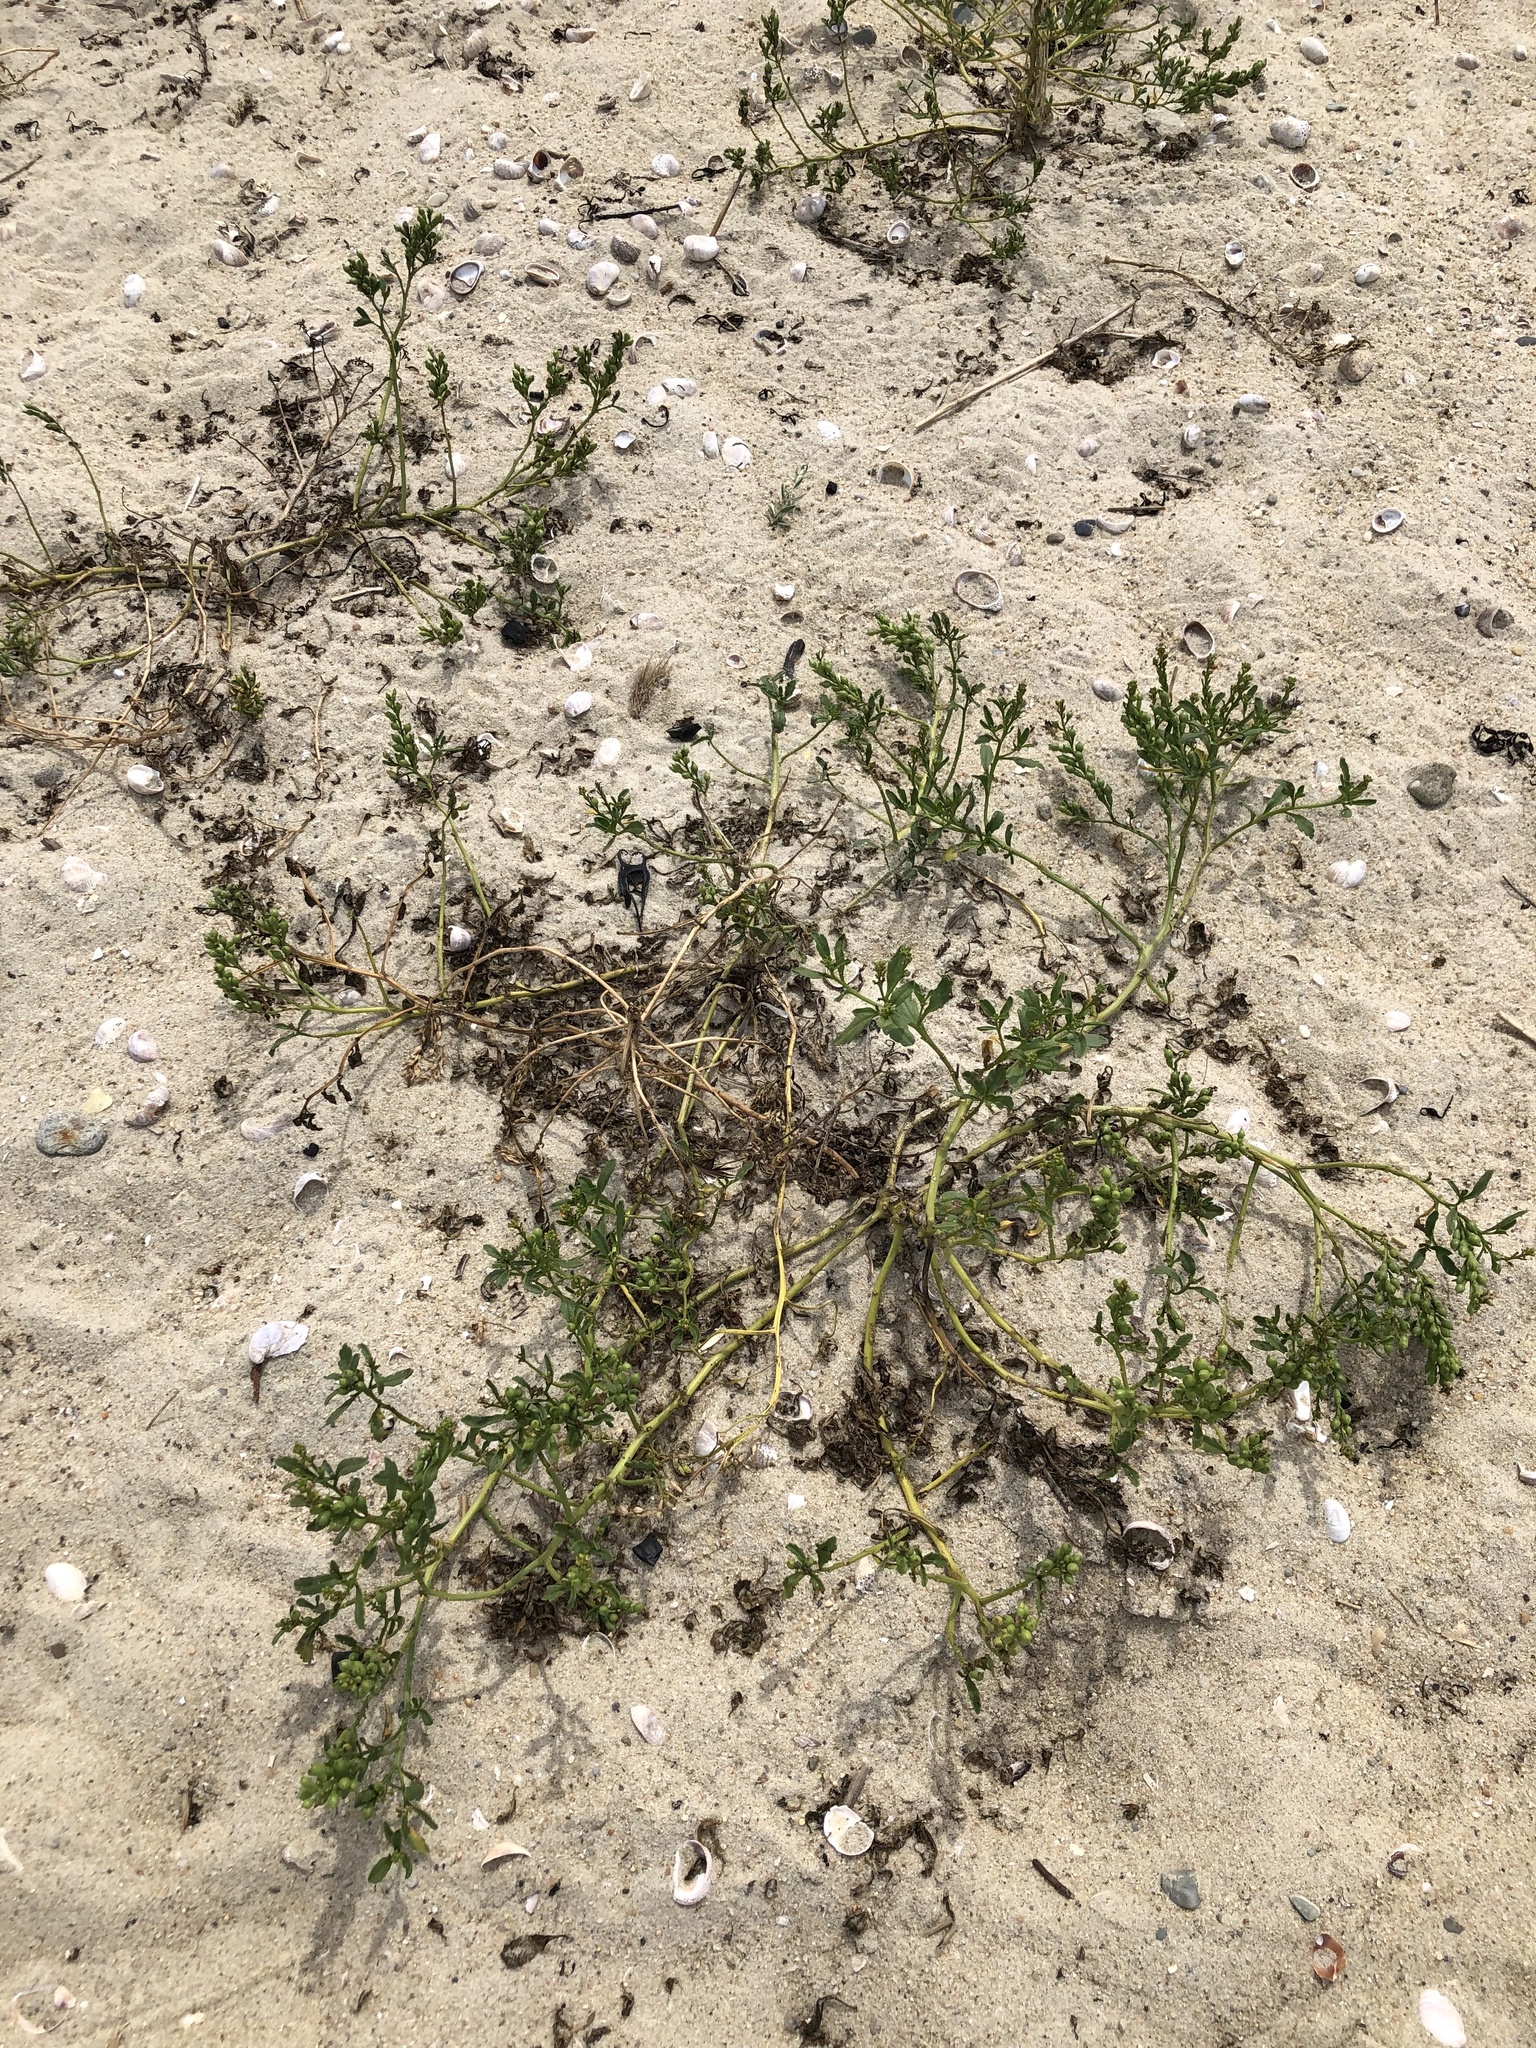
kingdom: Plantae
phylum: Tracheophyta
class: Magnoliopsida
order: Brassicales
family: Brassicaceae
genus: Cakile
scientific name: Cakile edentula
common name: American sea rocket
